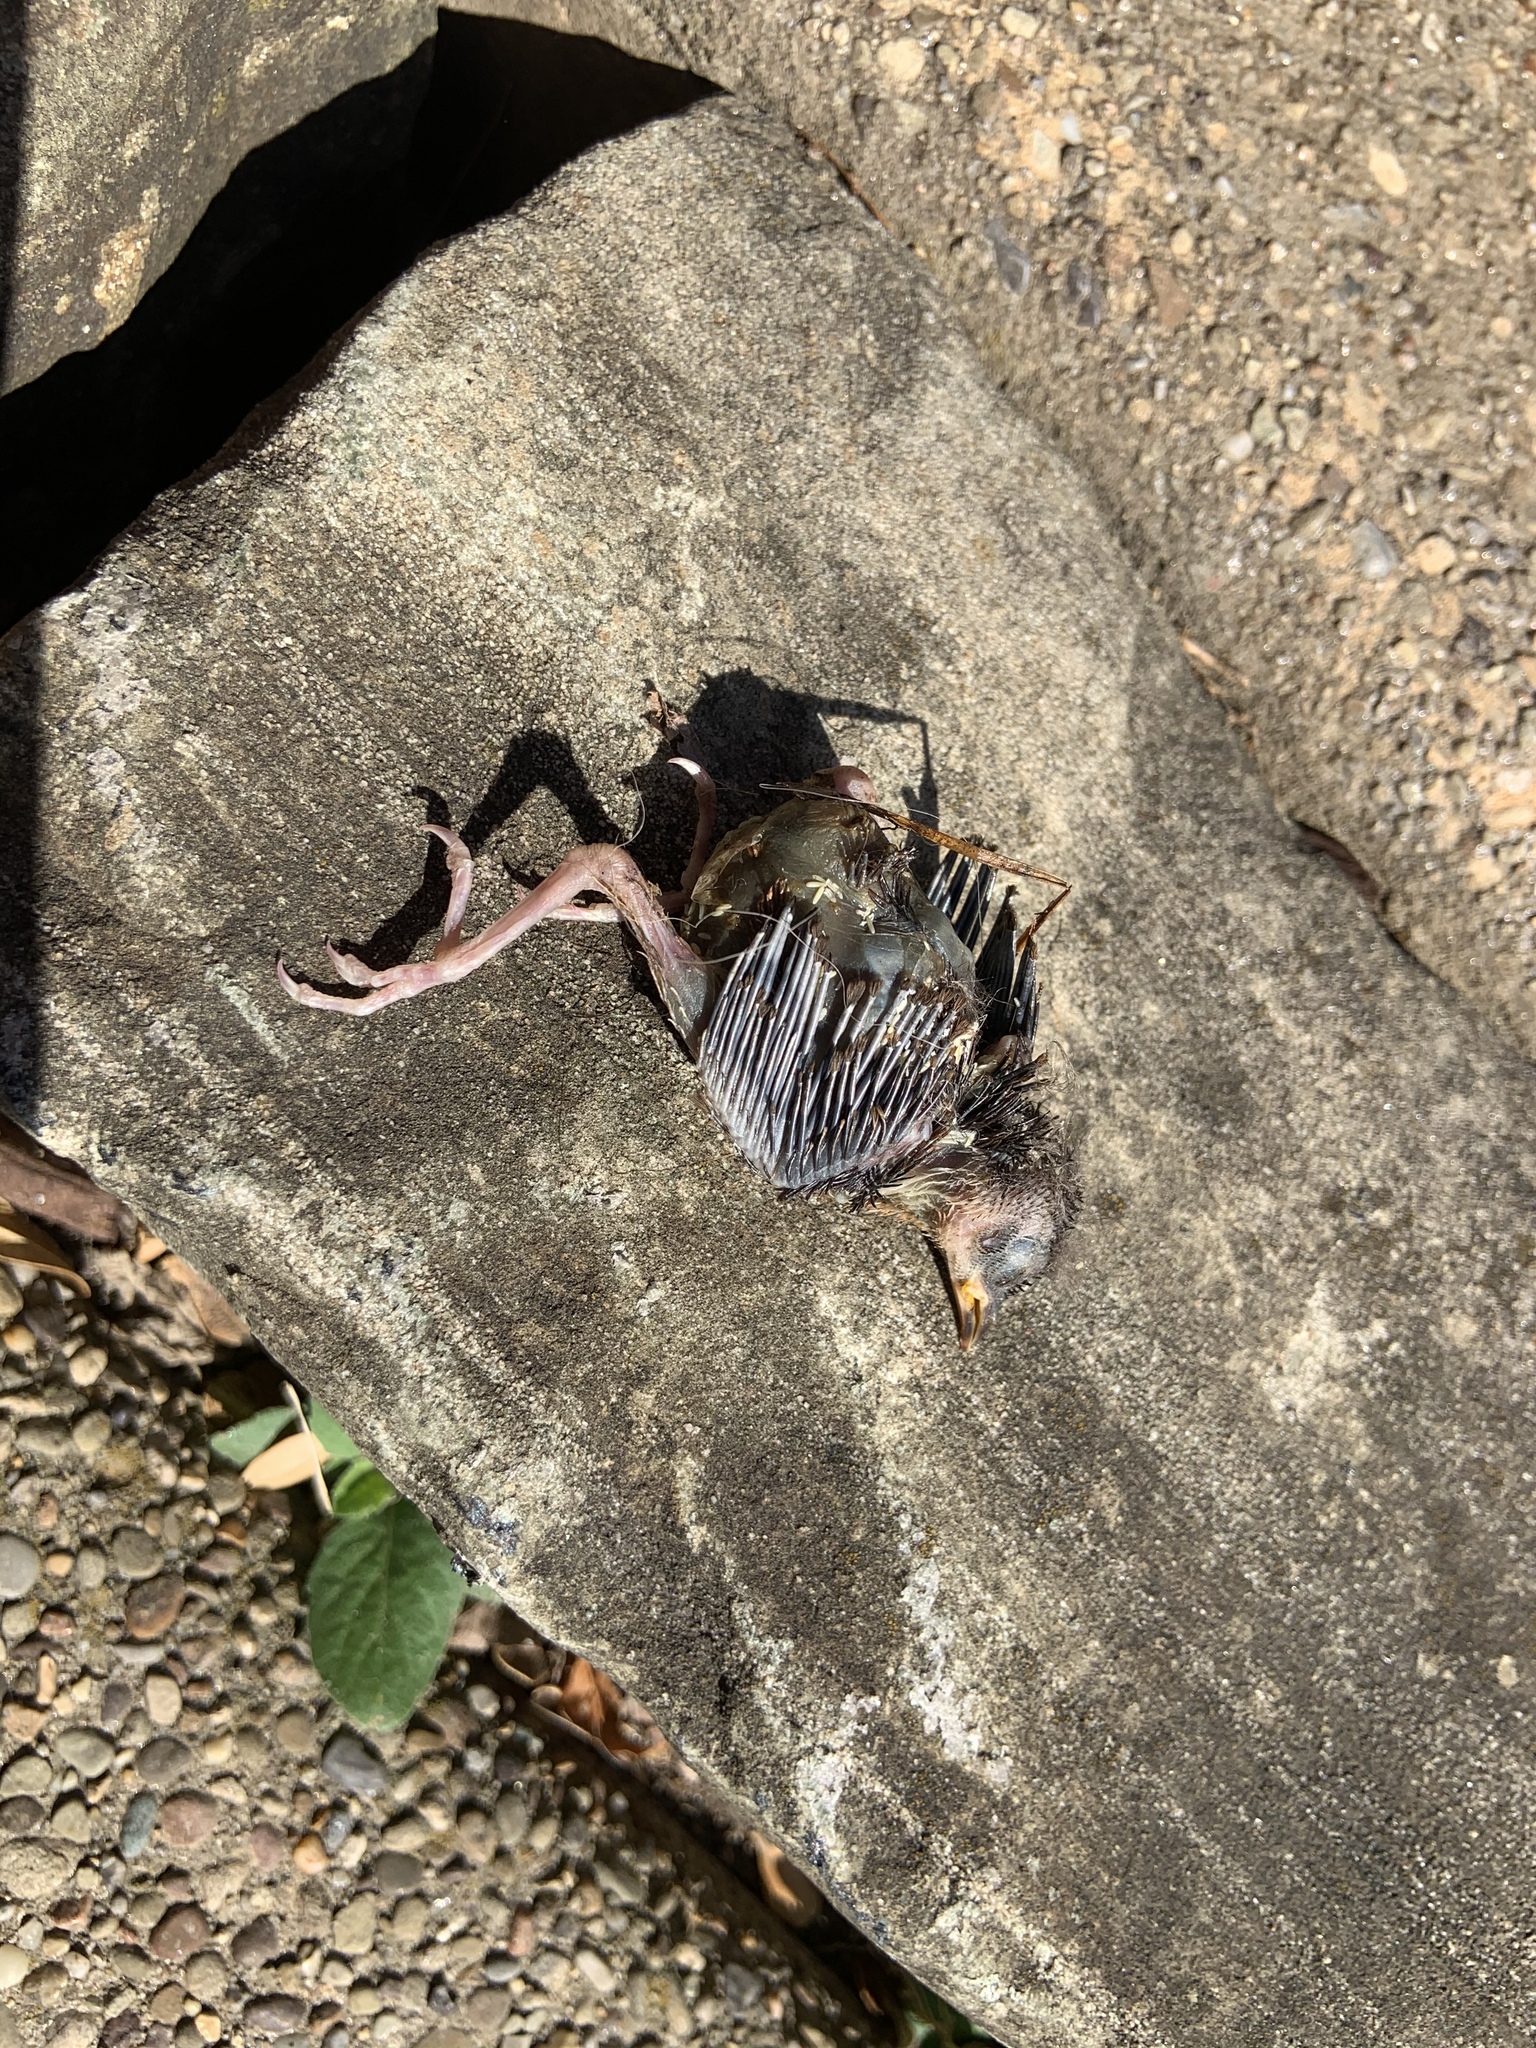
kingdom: Animalia
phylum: Chordata
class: Aves
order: Passeriformes
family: Troglodytidae
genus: Thryothorus
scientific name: Thryothorus ludovicianus
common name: Carolina wren
